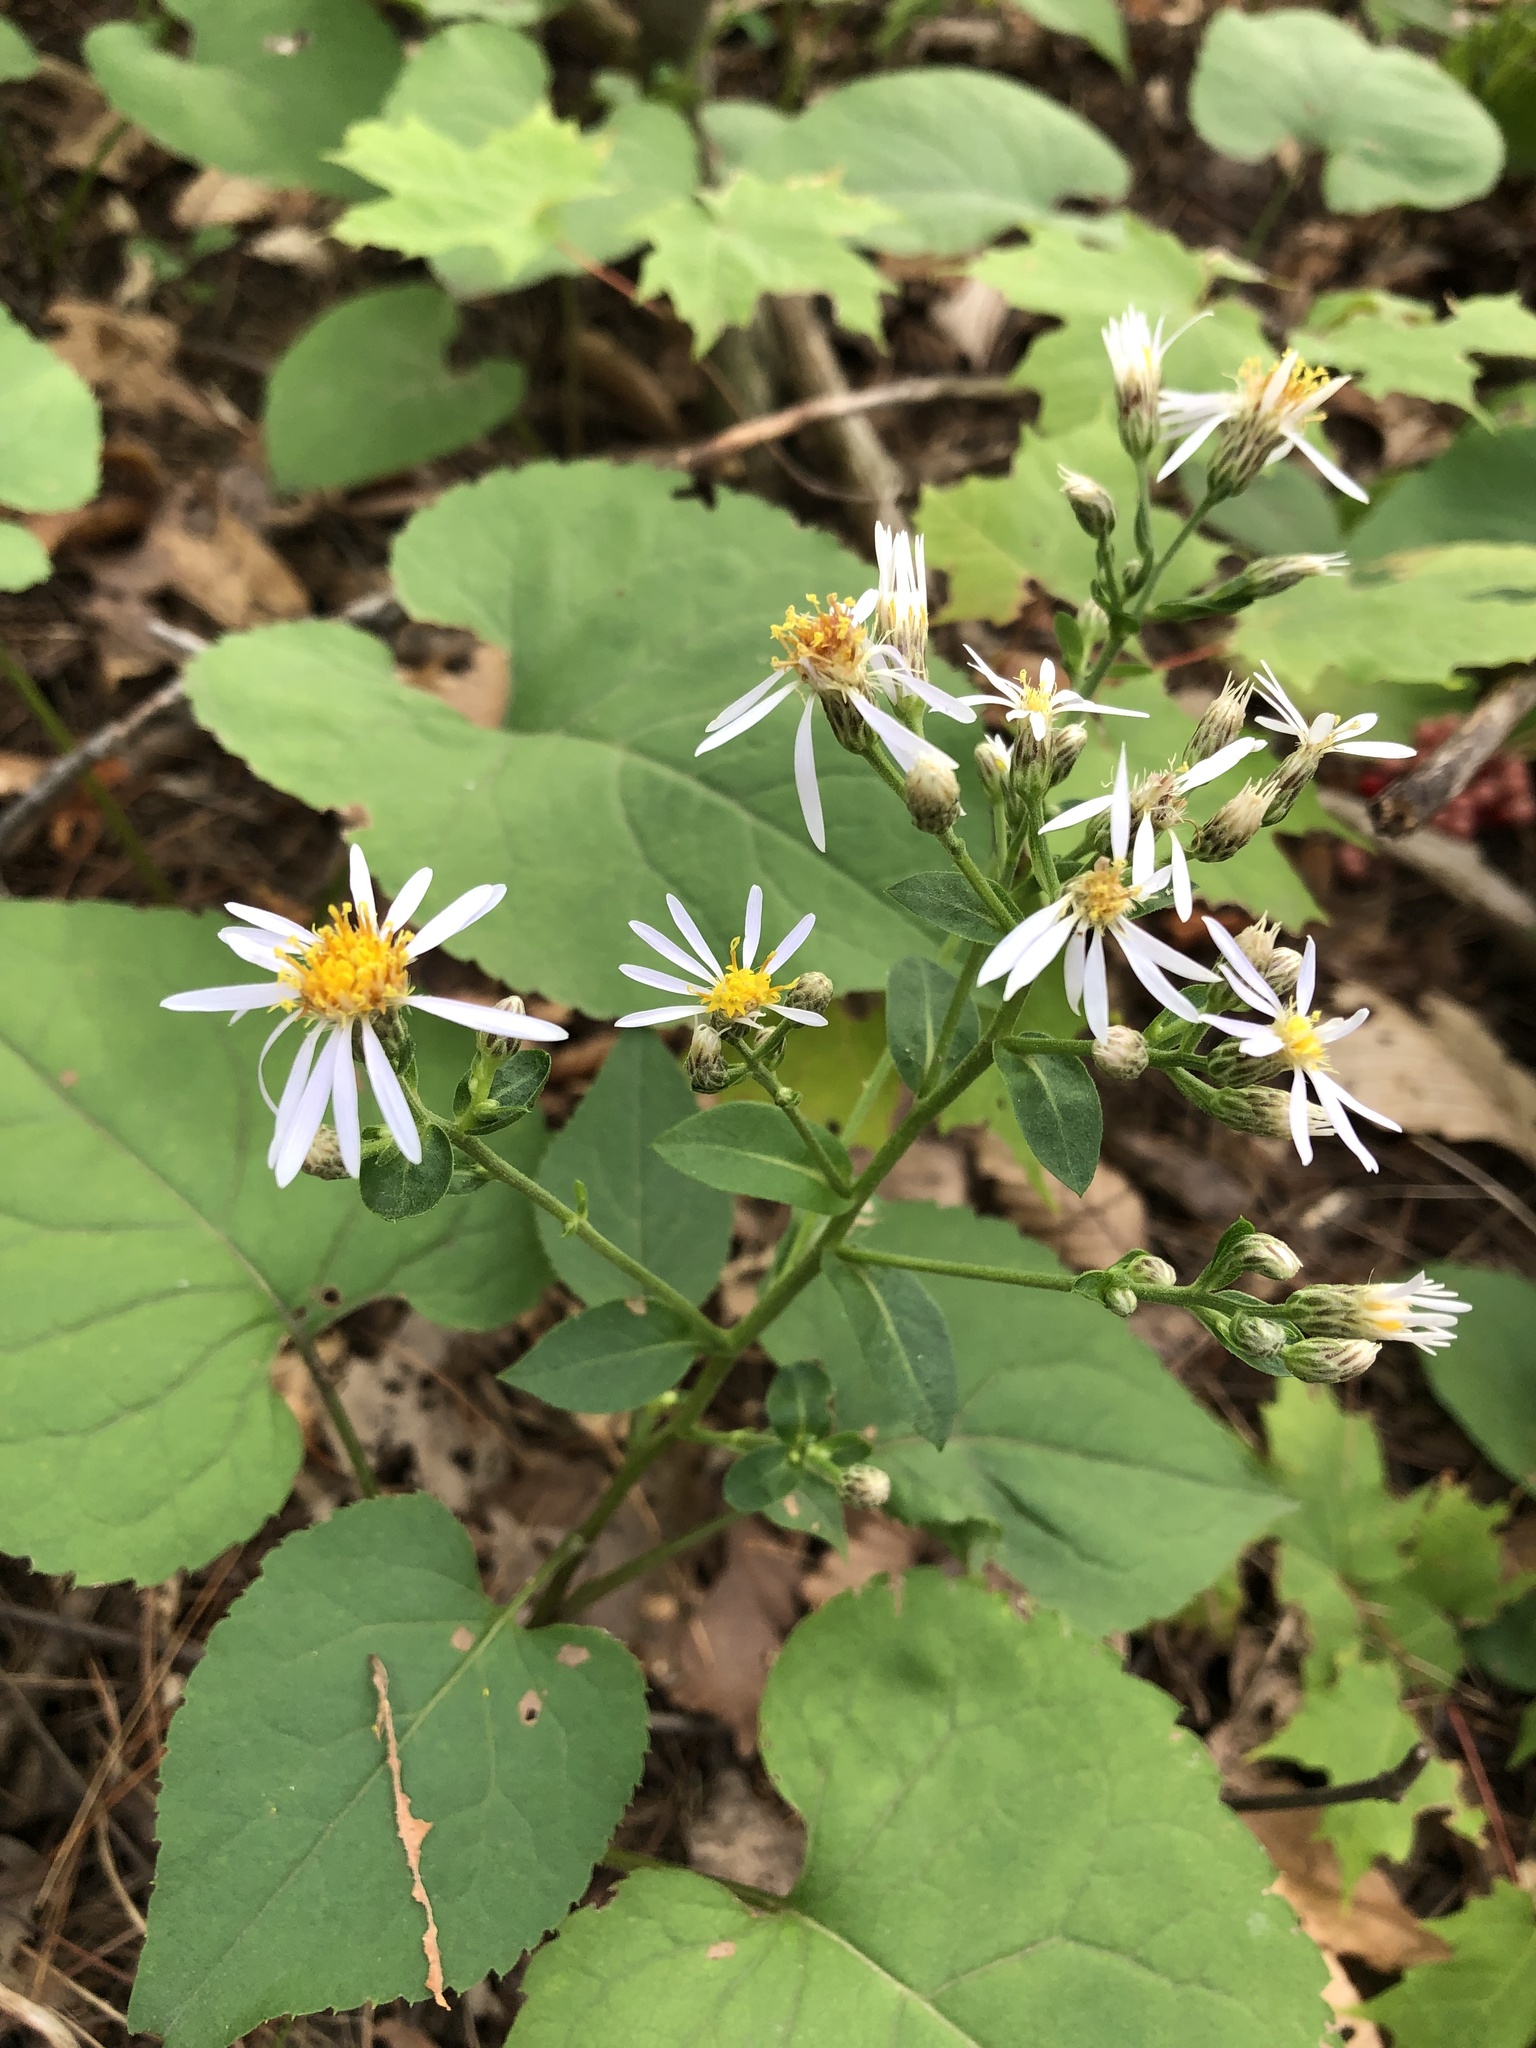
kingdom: Plantae
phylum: Tracheophyta
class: Magnoliopsida
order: Asterales
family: Asteraceae
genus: Eurybia
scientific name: Eurybia macrophylla
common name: Big-leaved aster
